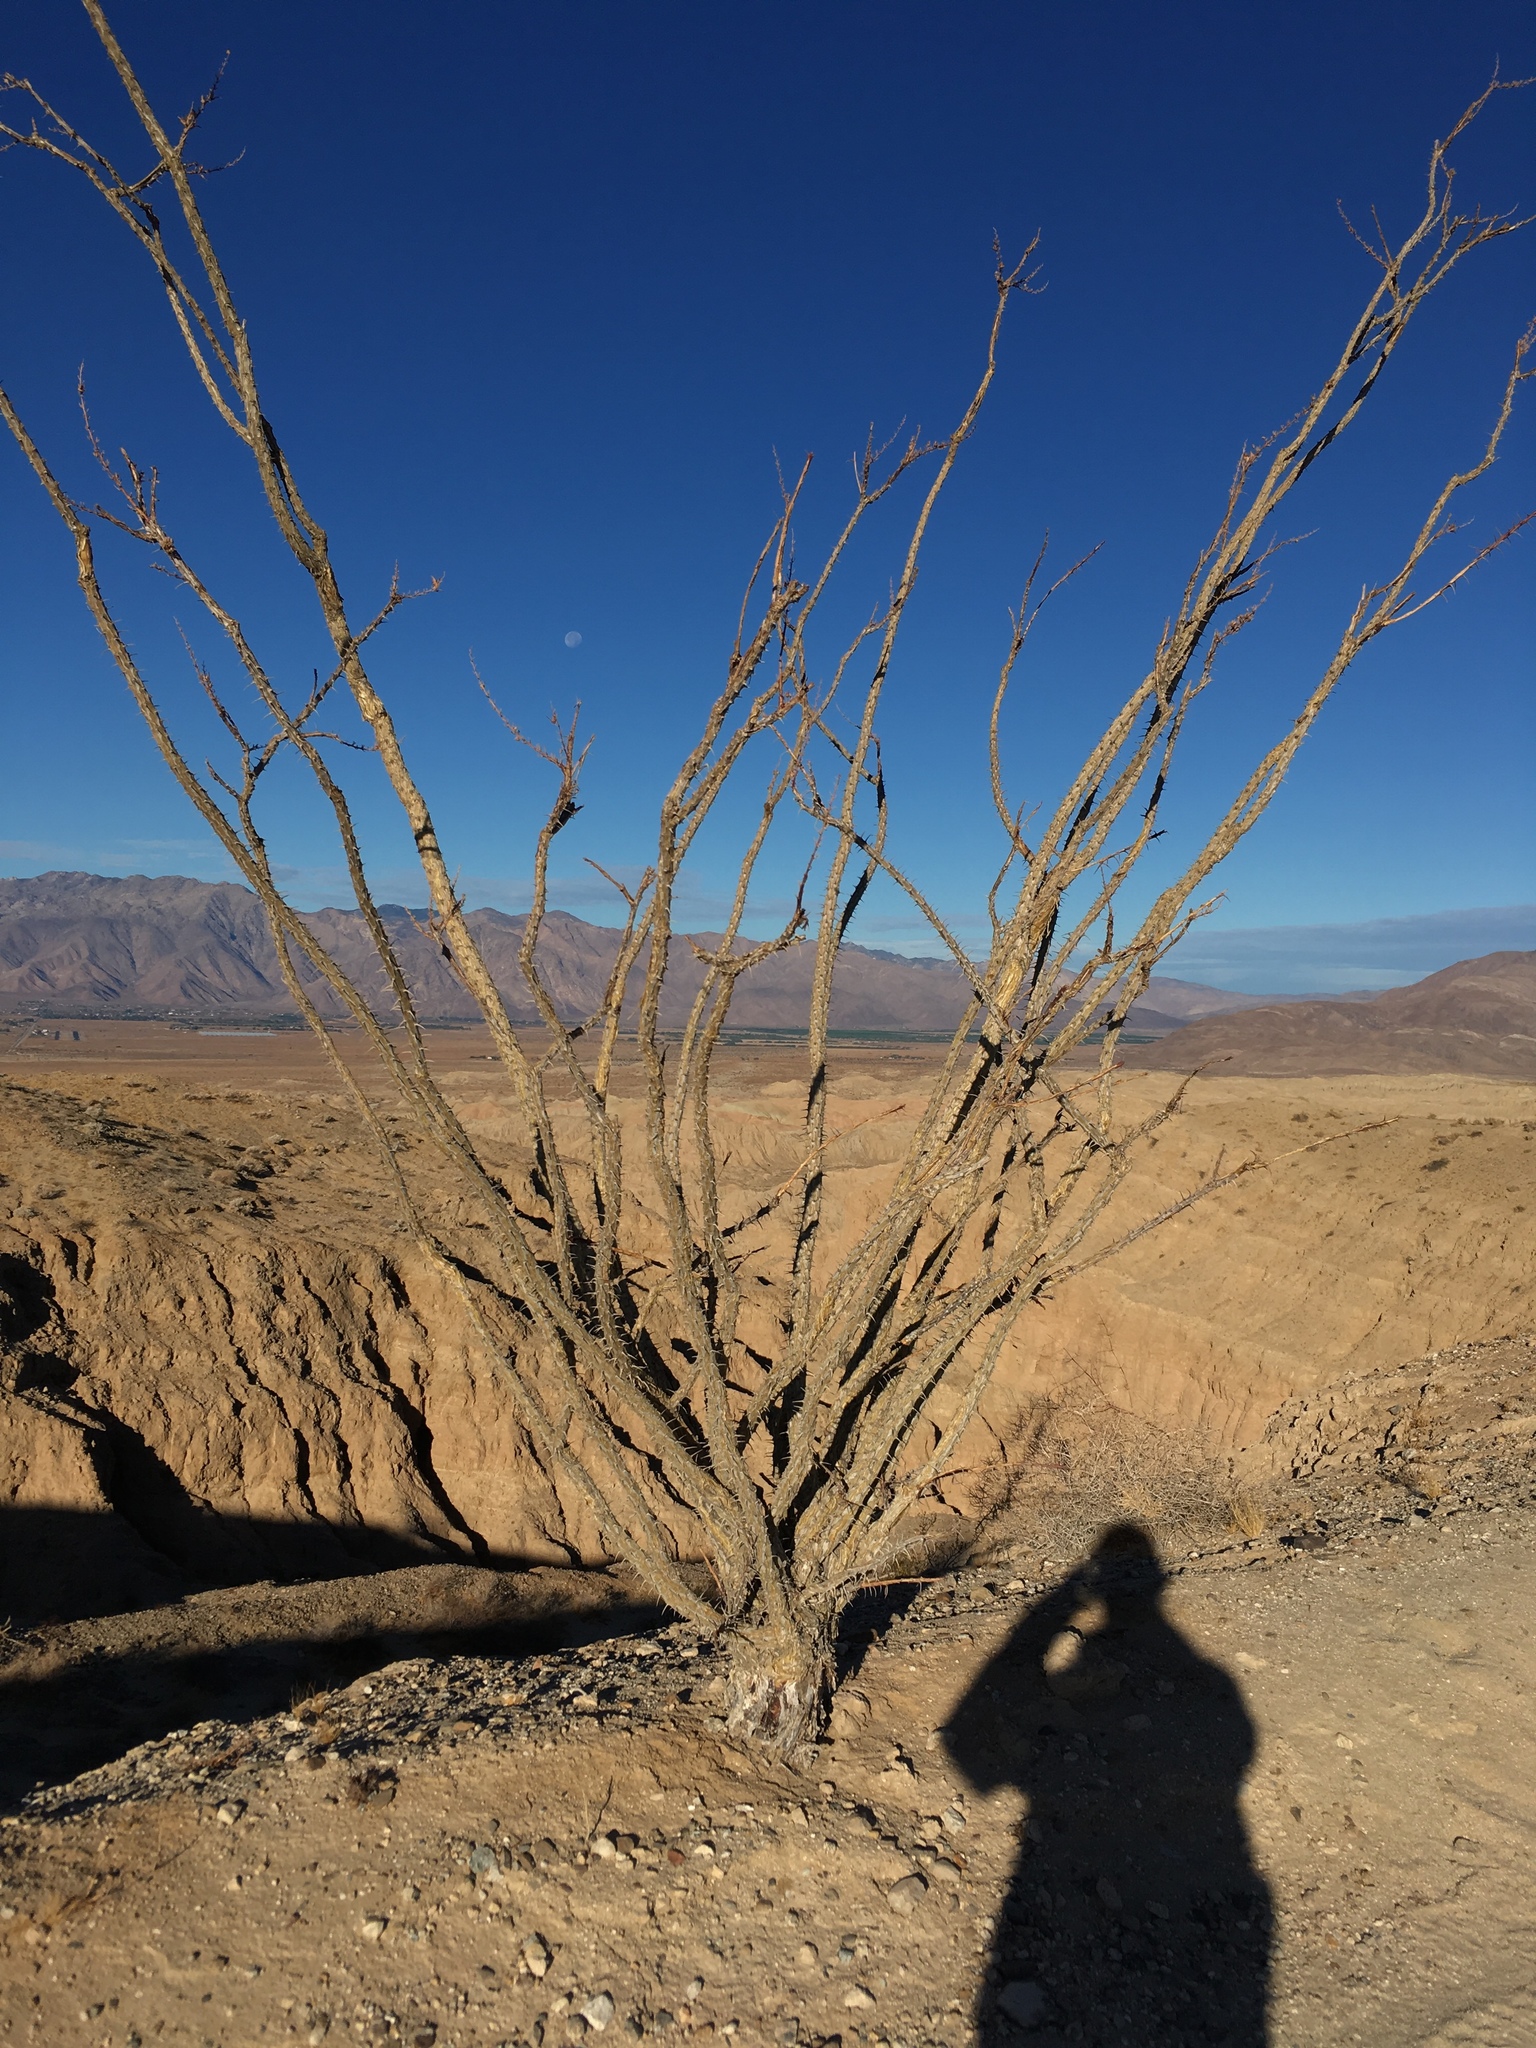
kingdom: Plantae
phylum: Tracheophyta
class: Magnoliopsida
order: Ericales
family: Fouquieriaceae
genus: Fouquieria
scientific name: Fouquieria splendens
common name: Vine-cactus
